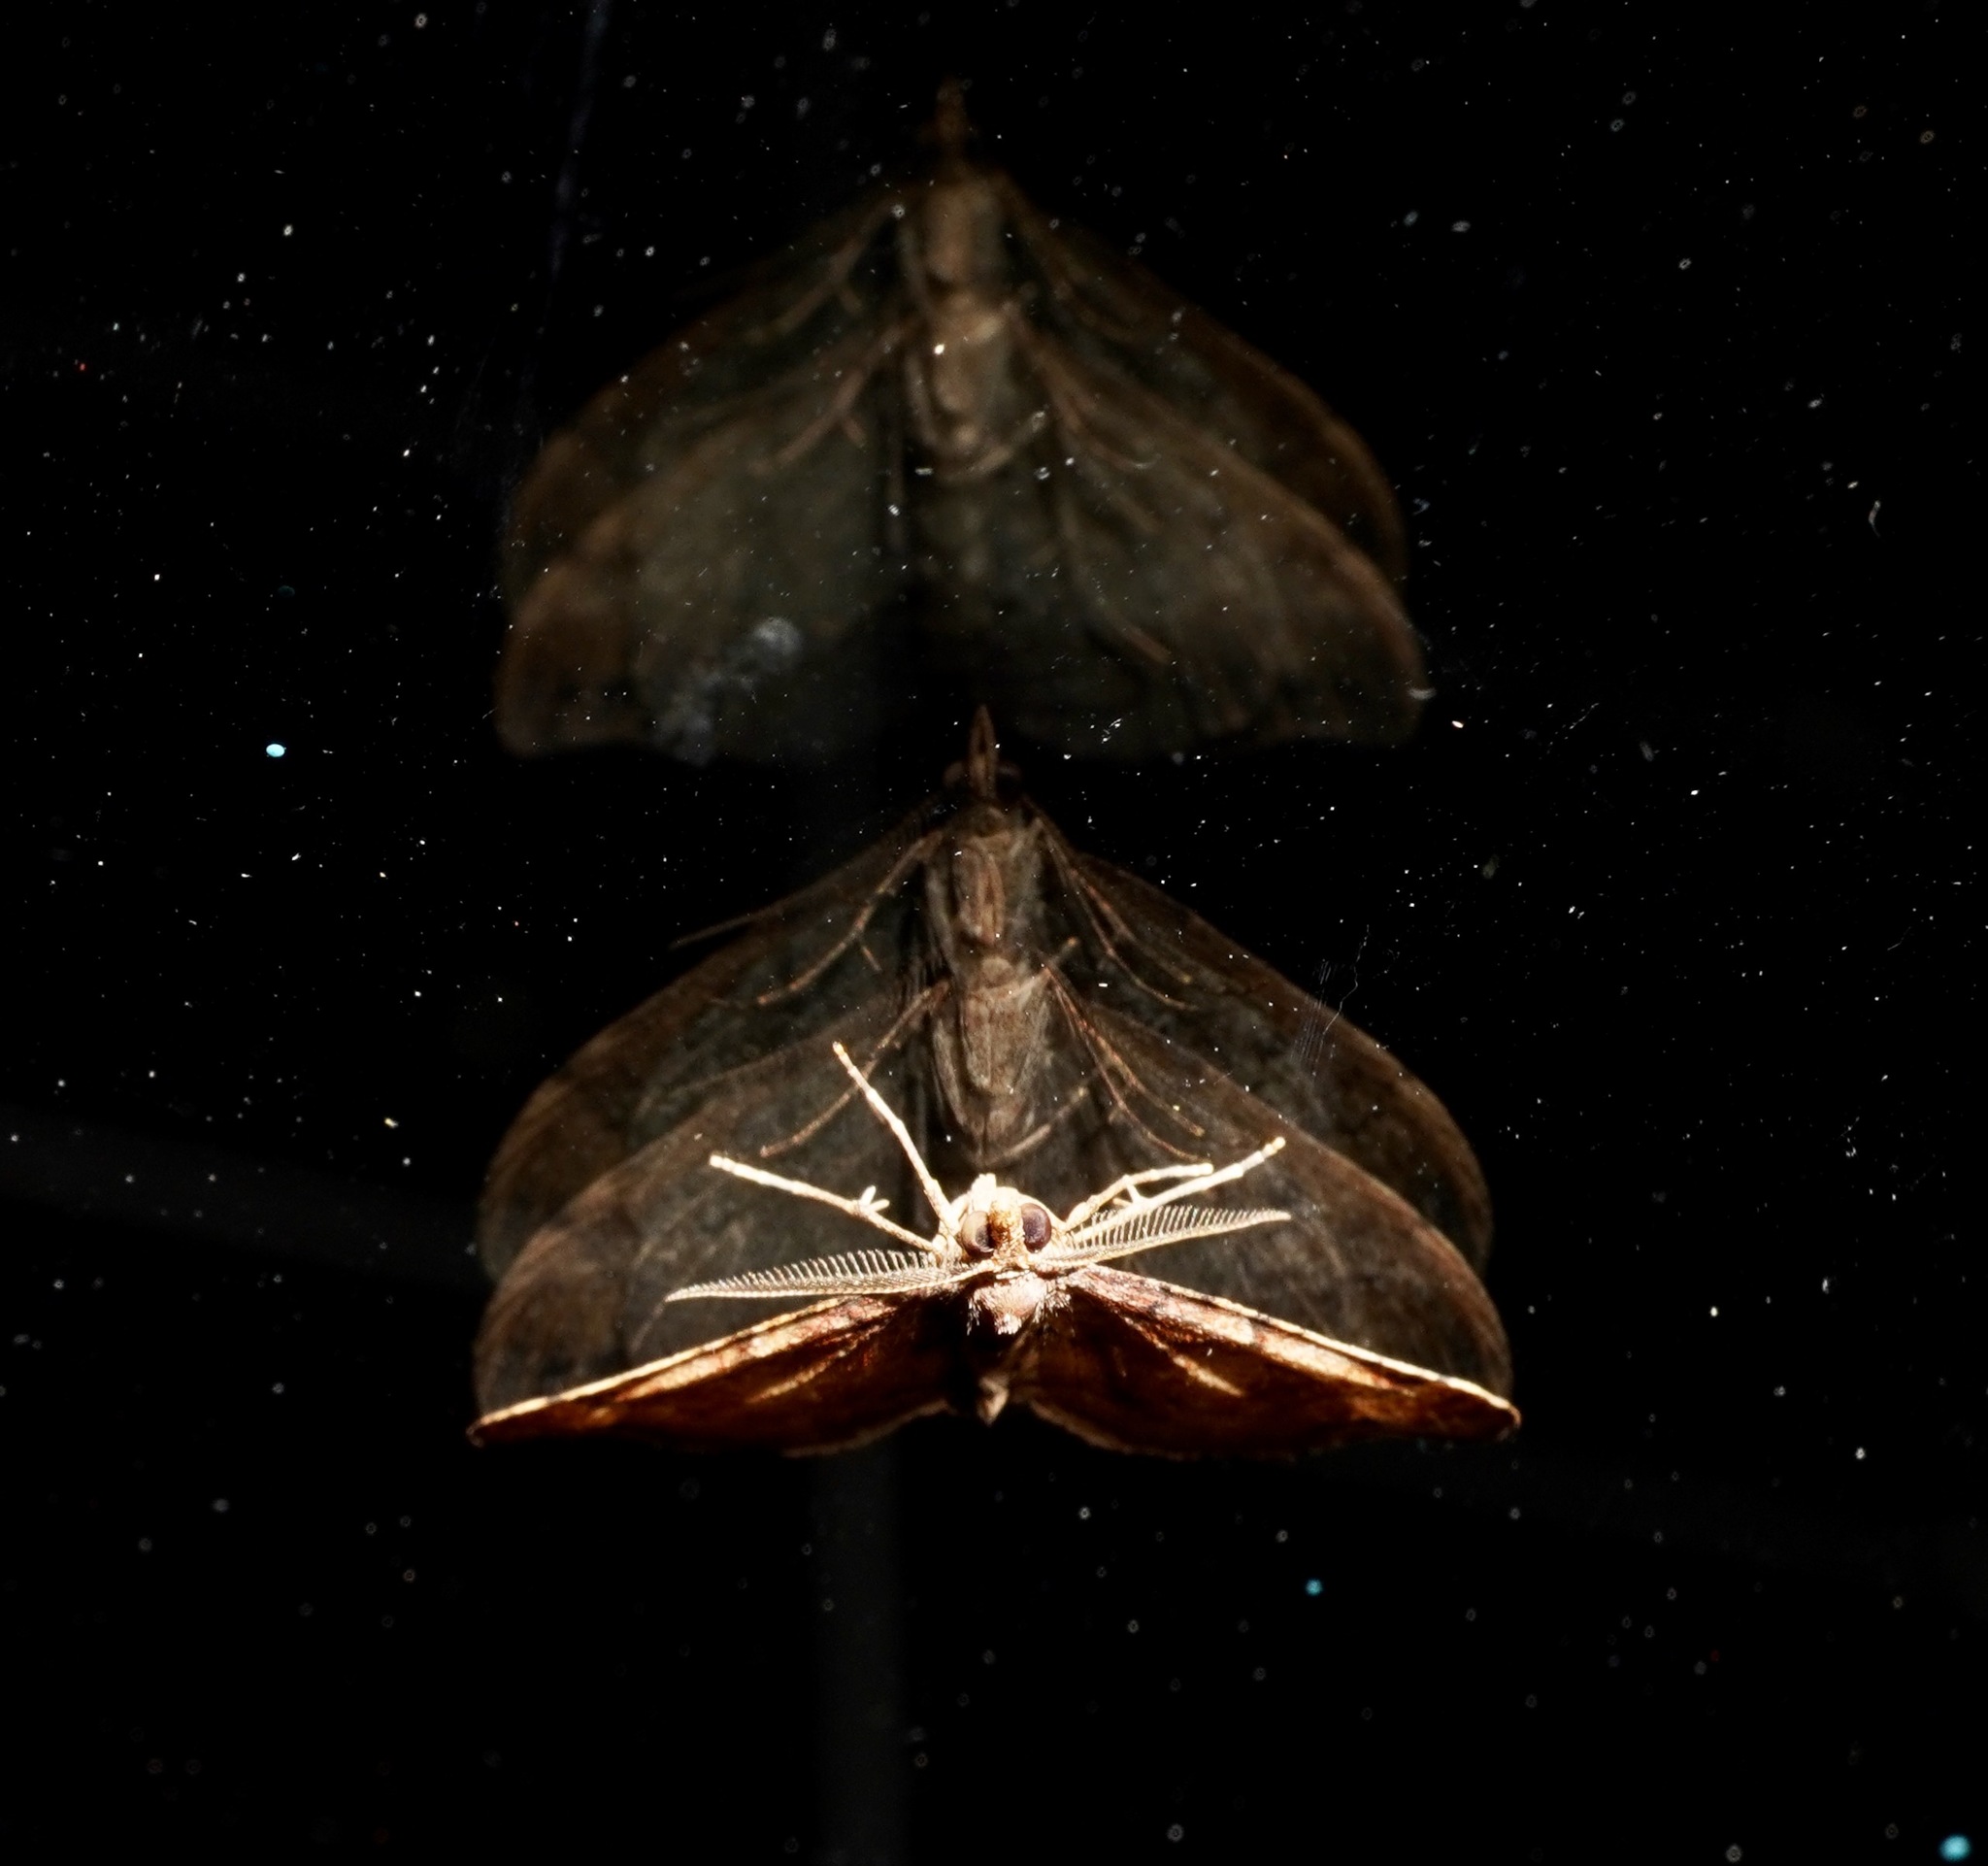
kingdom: Animalia
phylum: Arthropoda
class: Insecta
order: Lepidoptera
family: Geometridae
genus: Homodotis
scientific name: Homodotis megaspilata
